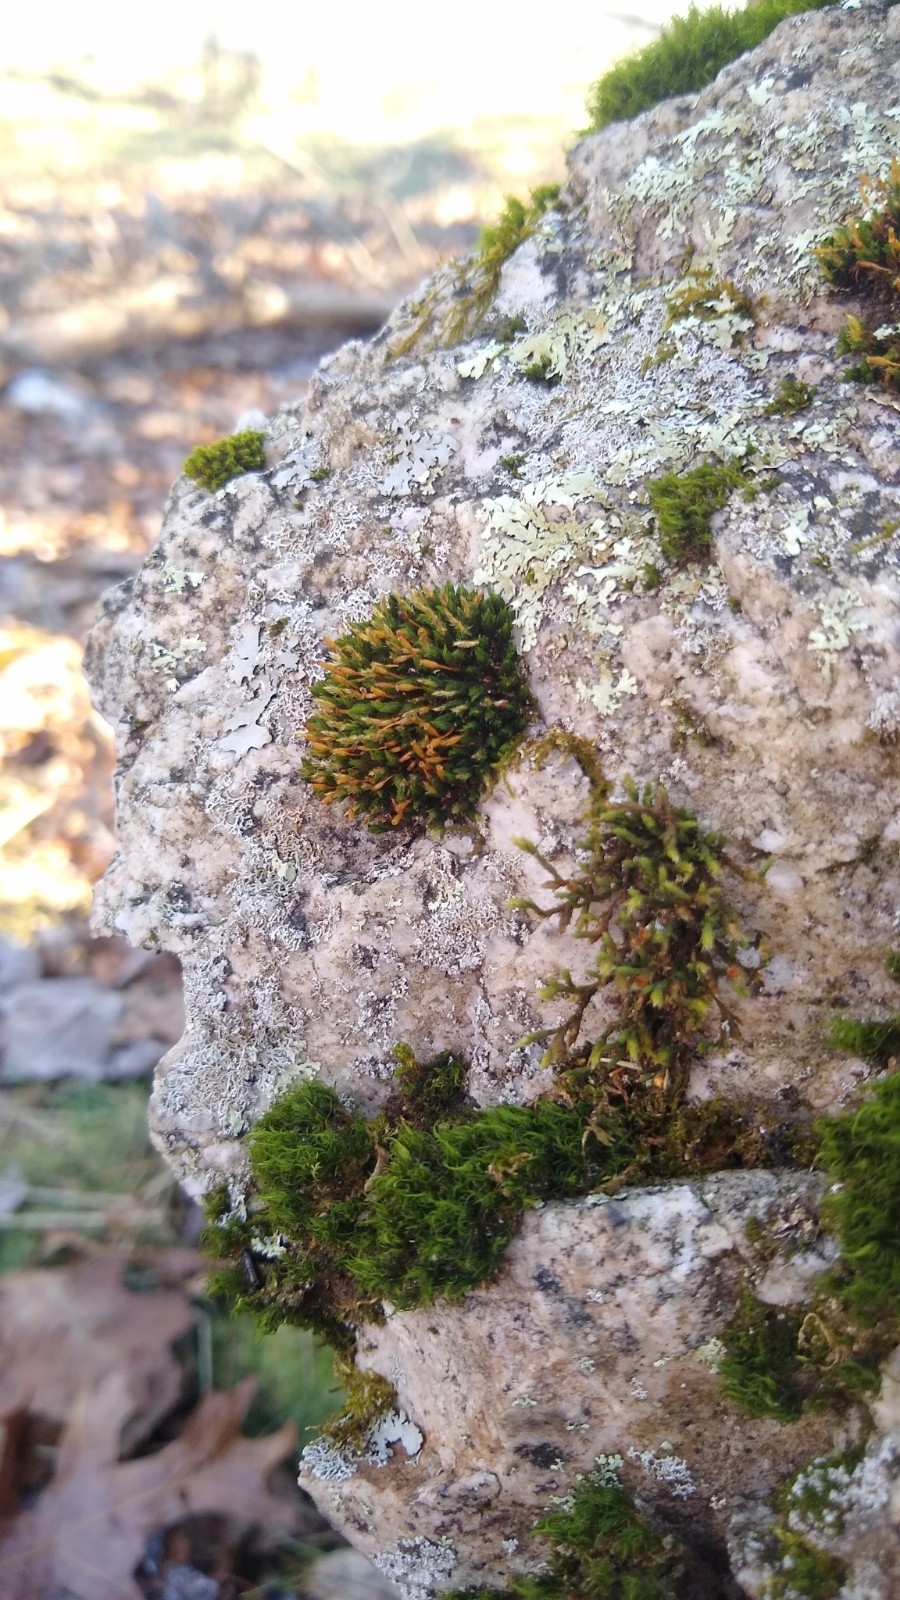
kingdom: Plantae
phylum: Bryophyta
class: Bryopsida
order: Orthotrichales
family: Orthotrichaceae
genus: Orthotrichum
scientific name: Orthotrichum anomalum
